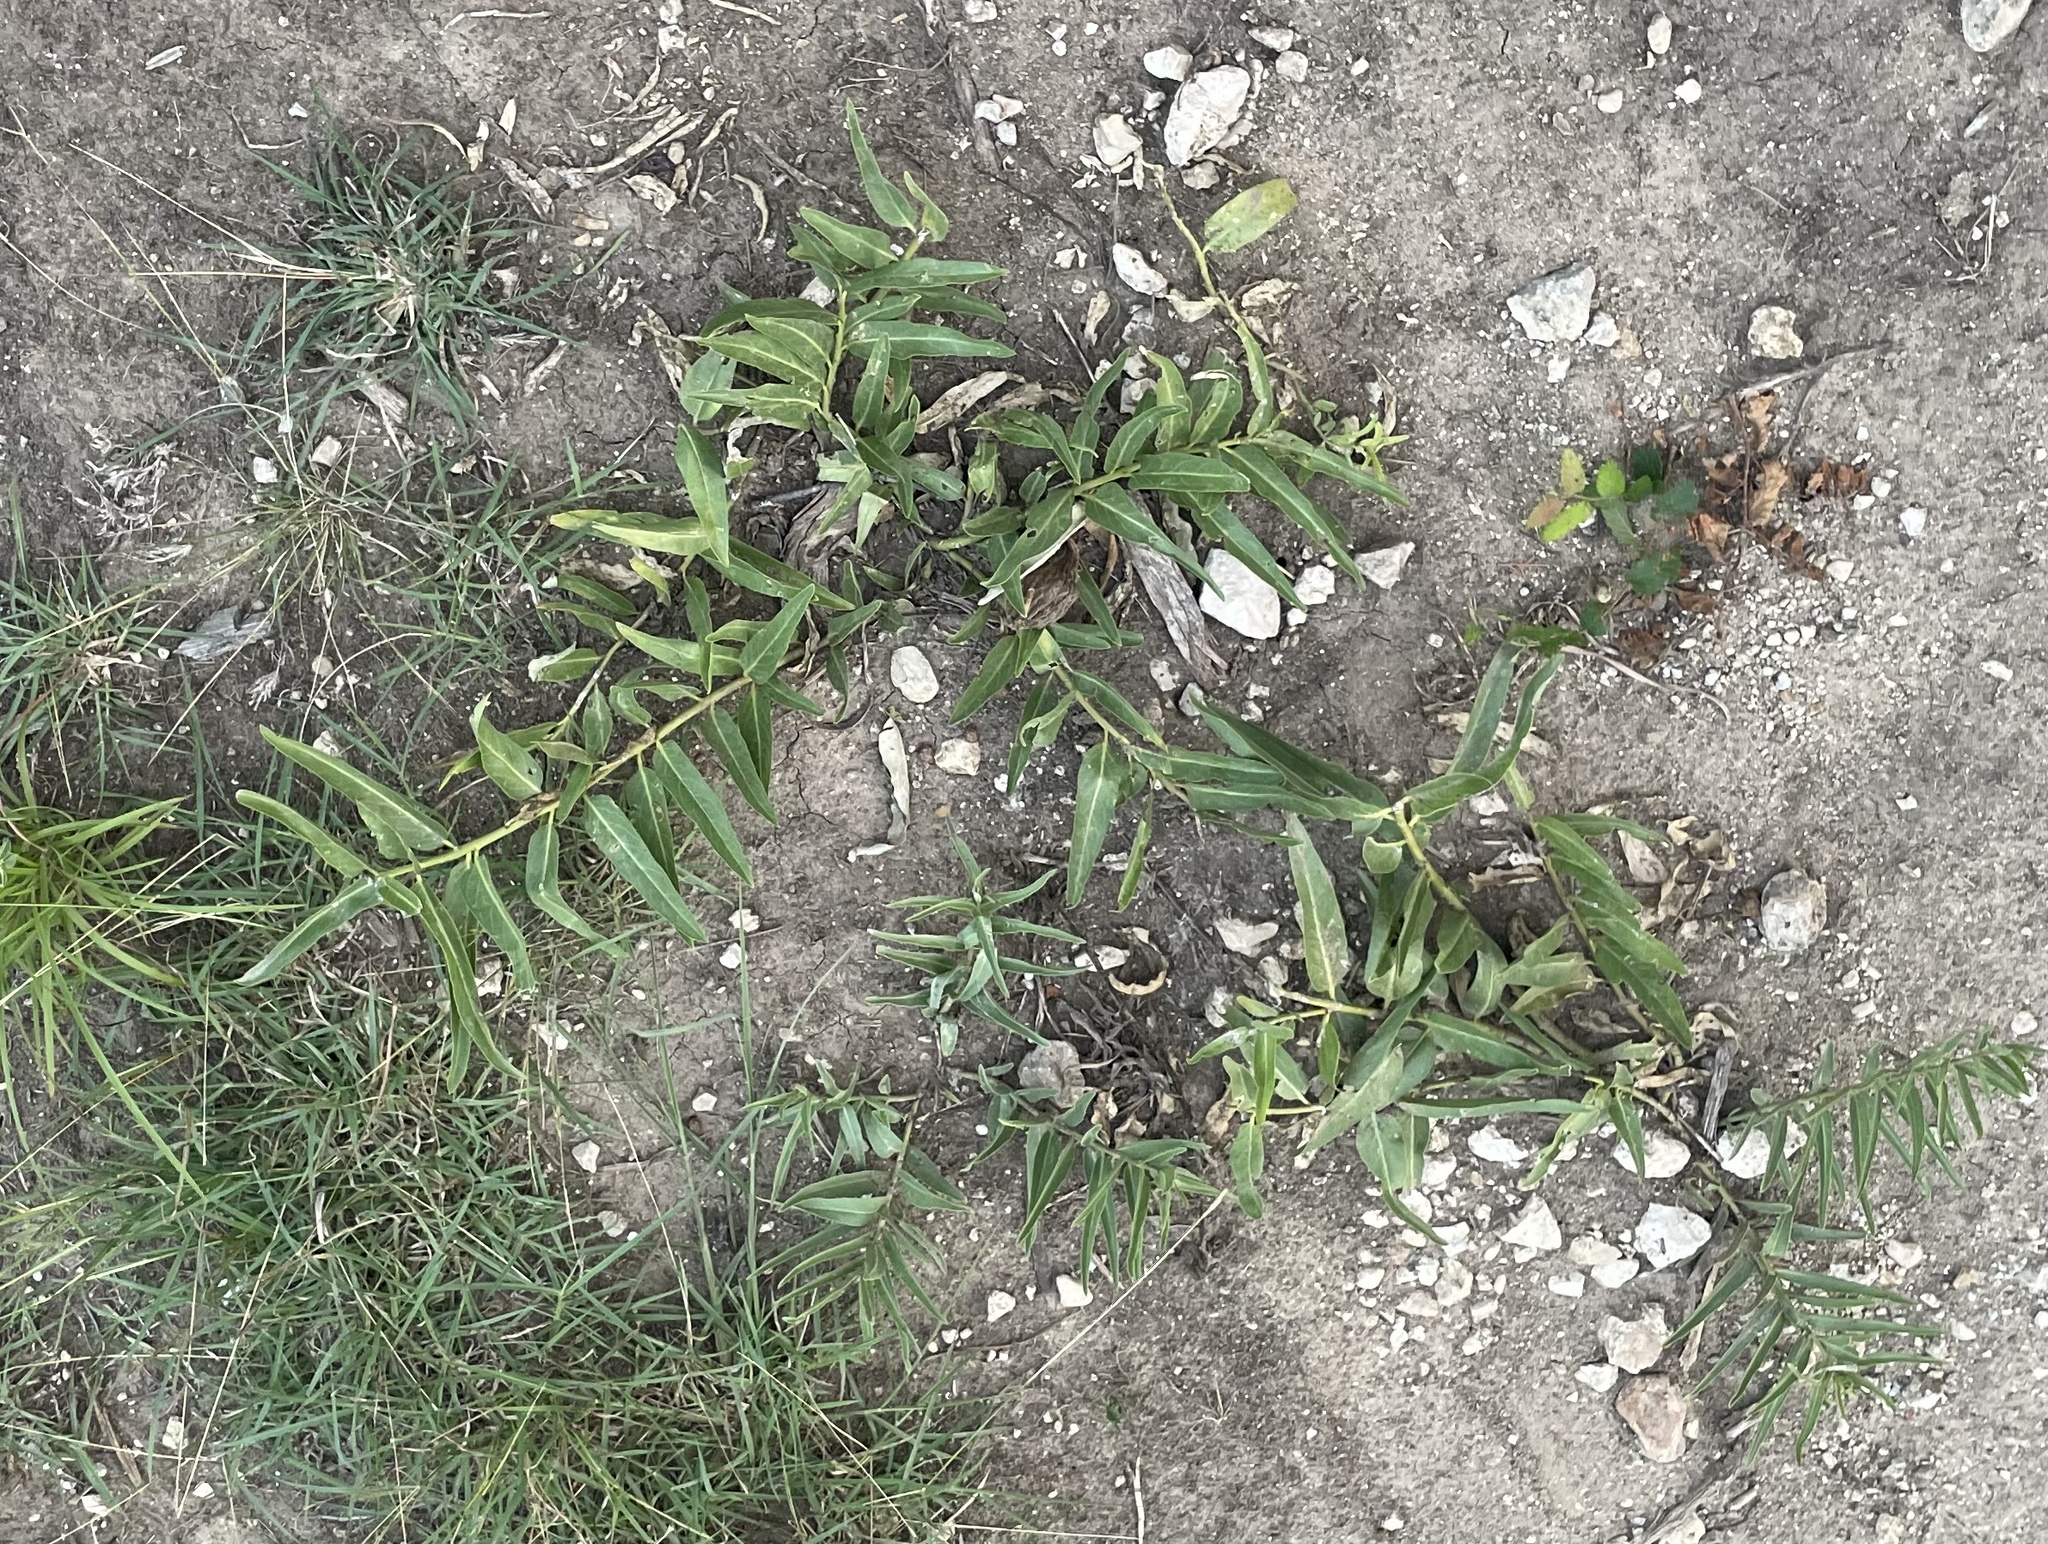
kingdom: Plantae
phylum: Tracheophyta
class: Magnoliopsida
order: Gentianales
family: Apocynaceae
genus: Asclepias
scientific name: Asclepias asperula
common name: Antelope horns
